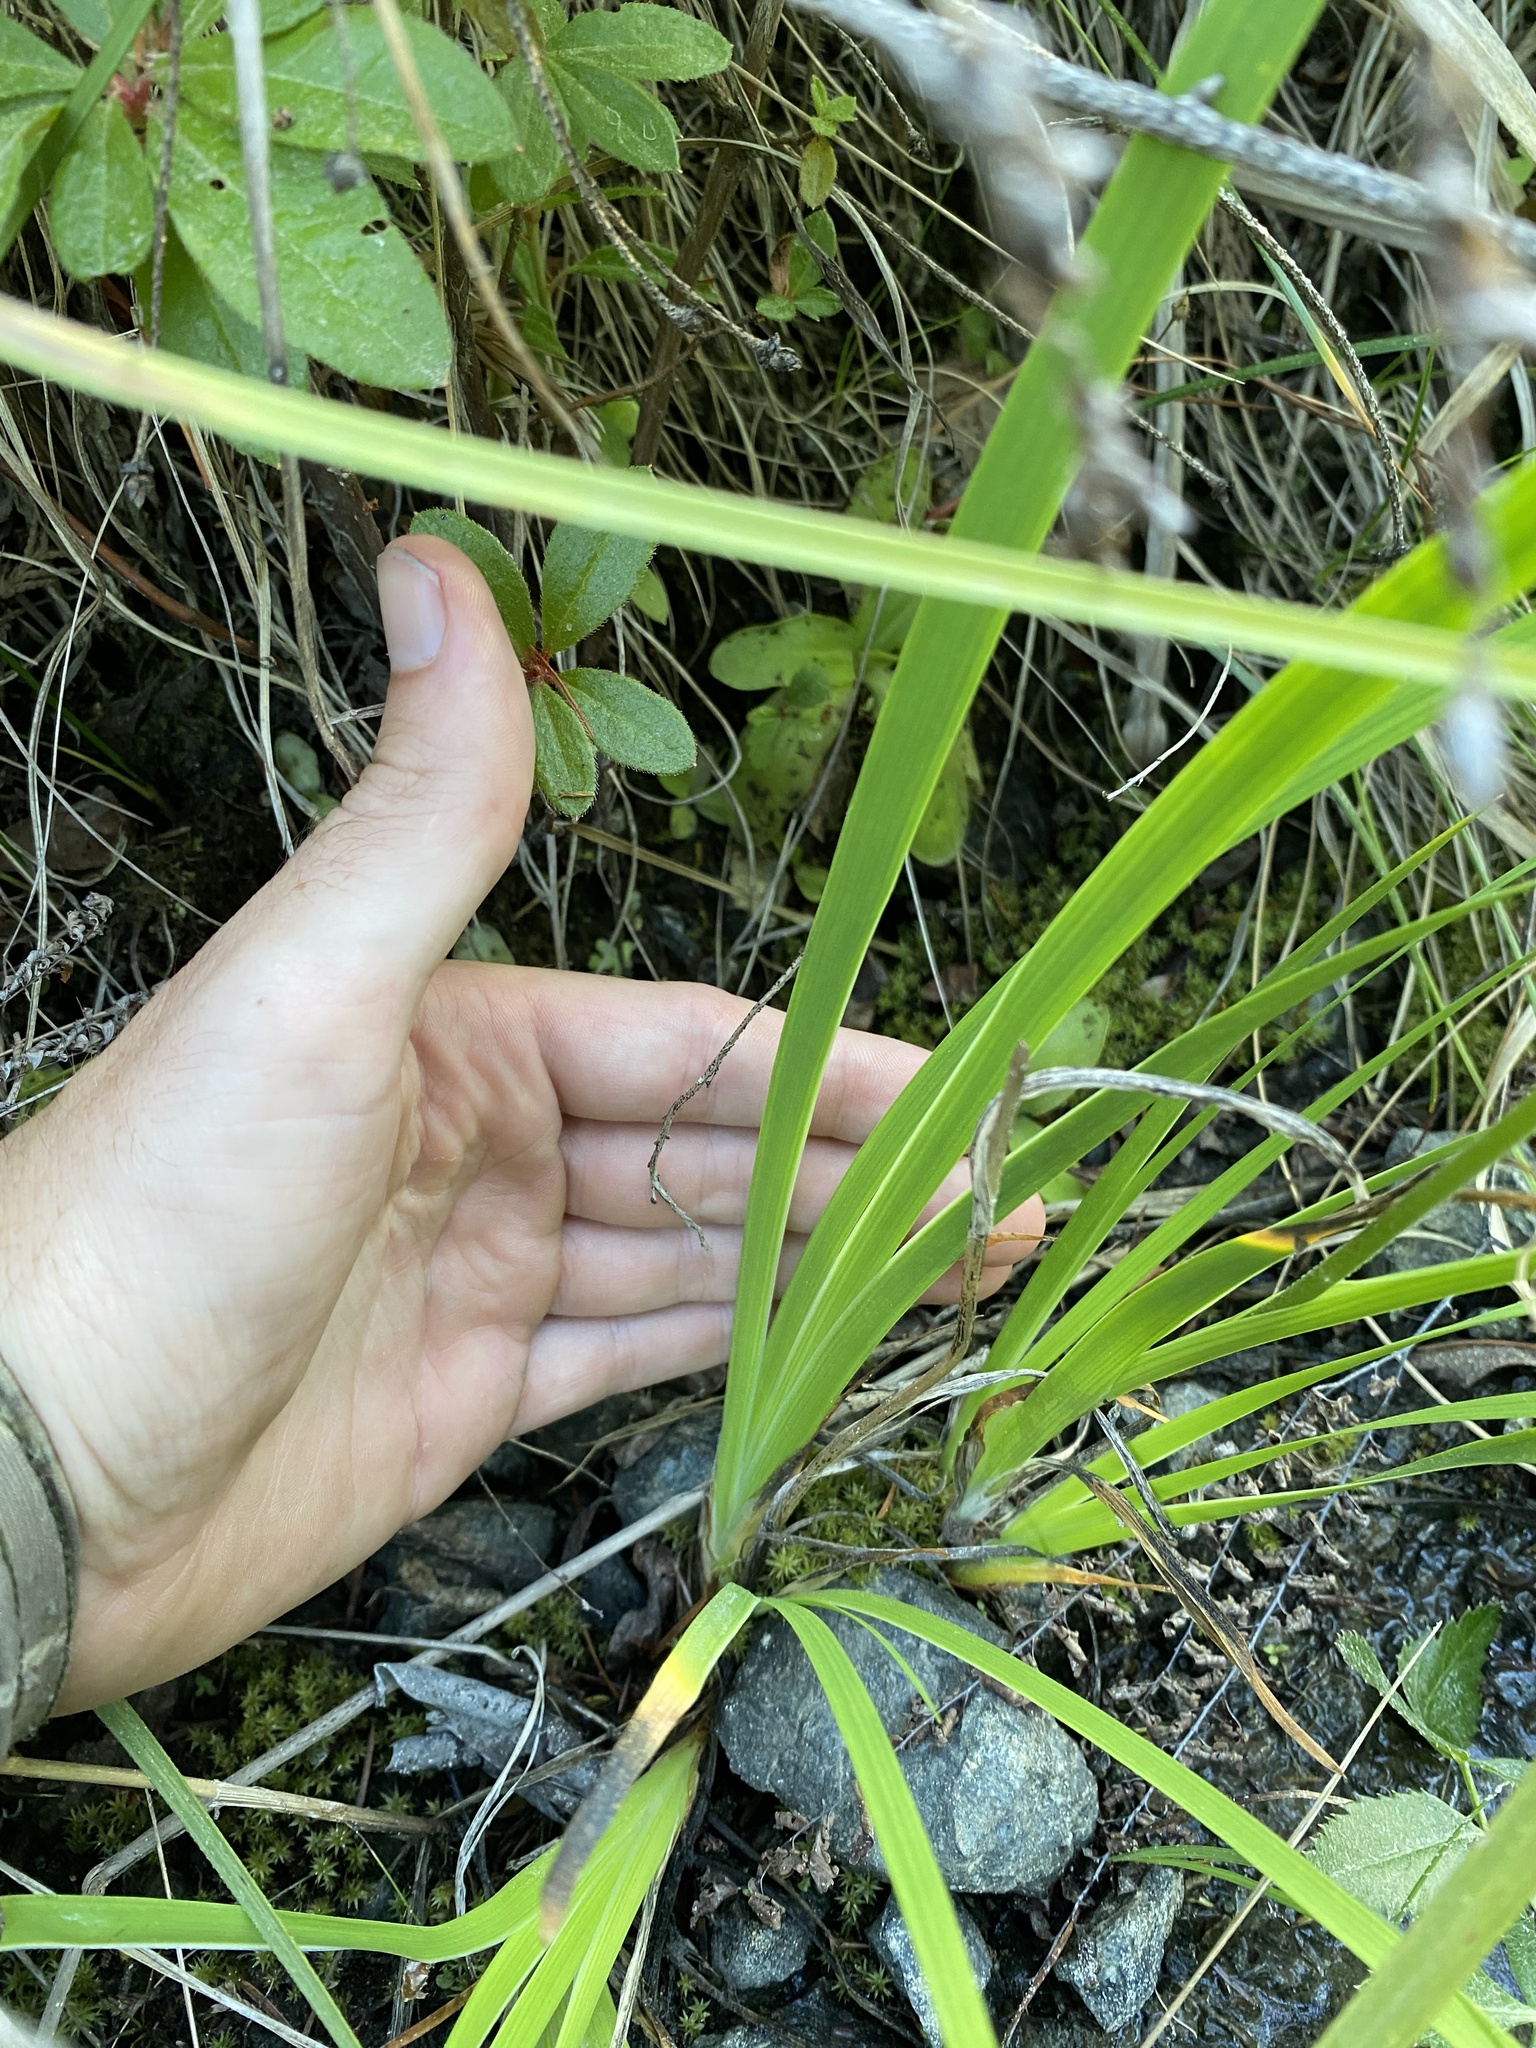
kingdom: Plantae
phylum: Tracheophyta
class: Liliopsida
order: Alismatales
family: Tofieldiaceae
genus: Triantha
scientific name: Triantha occidentalis
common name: Western false asphodel
